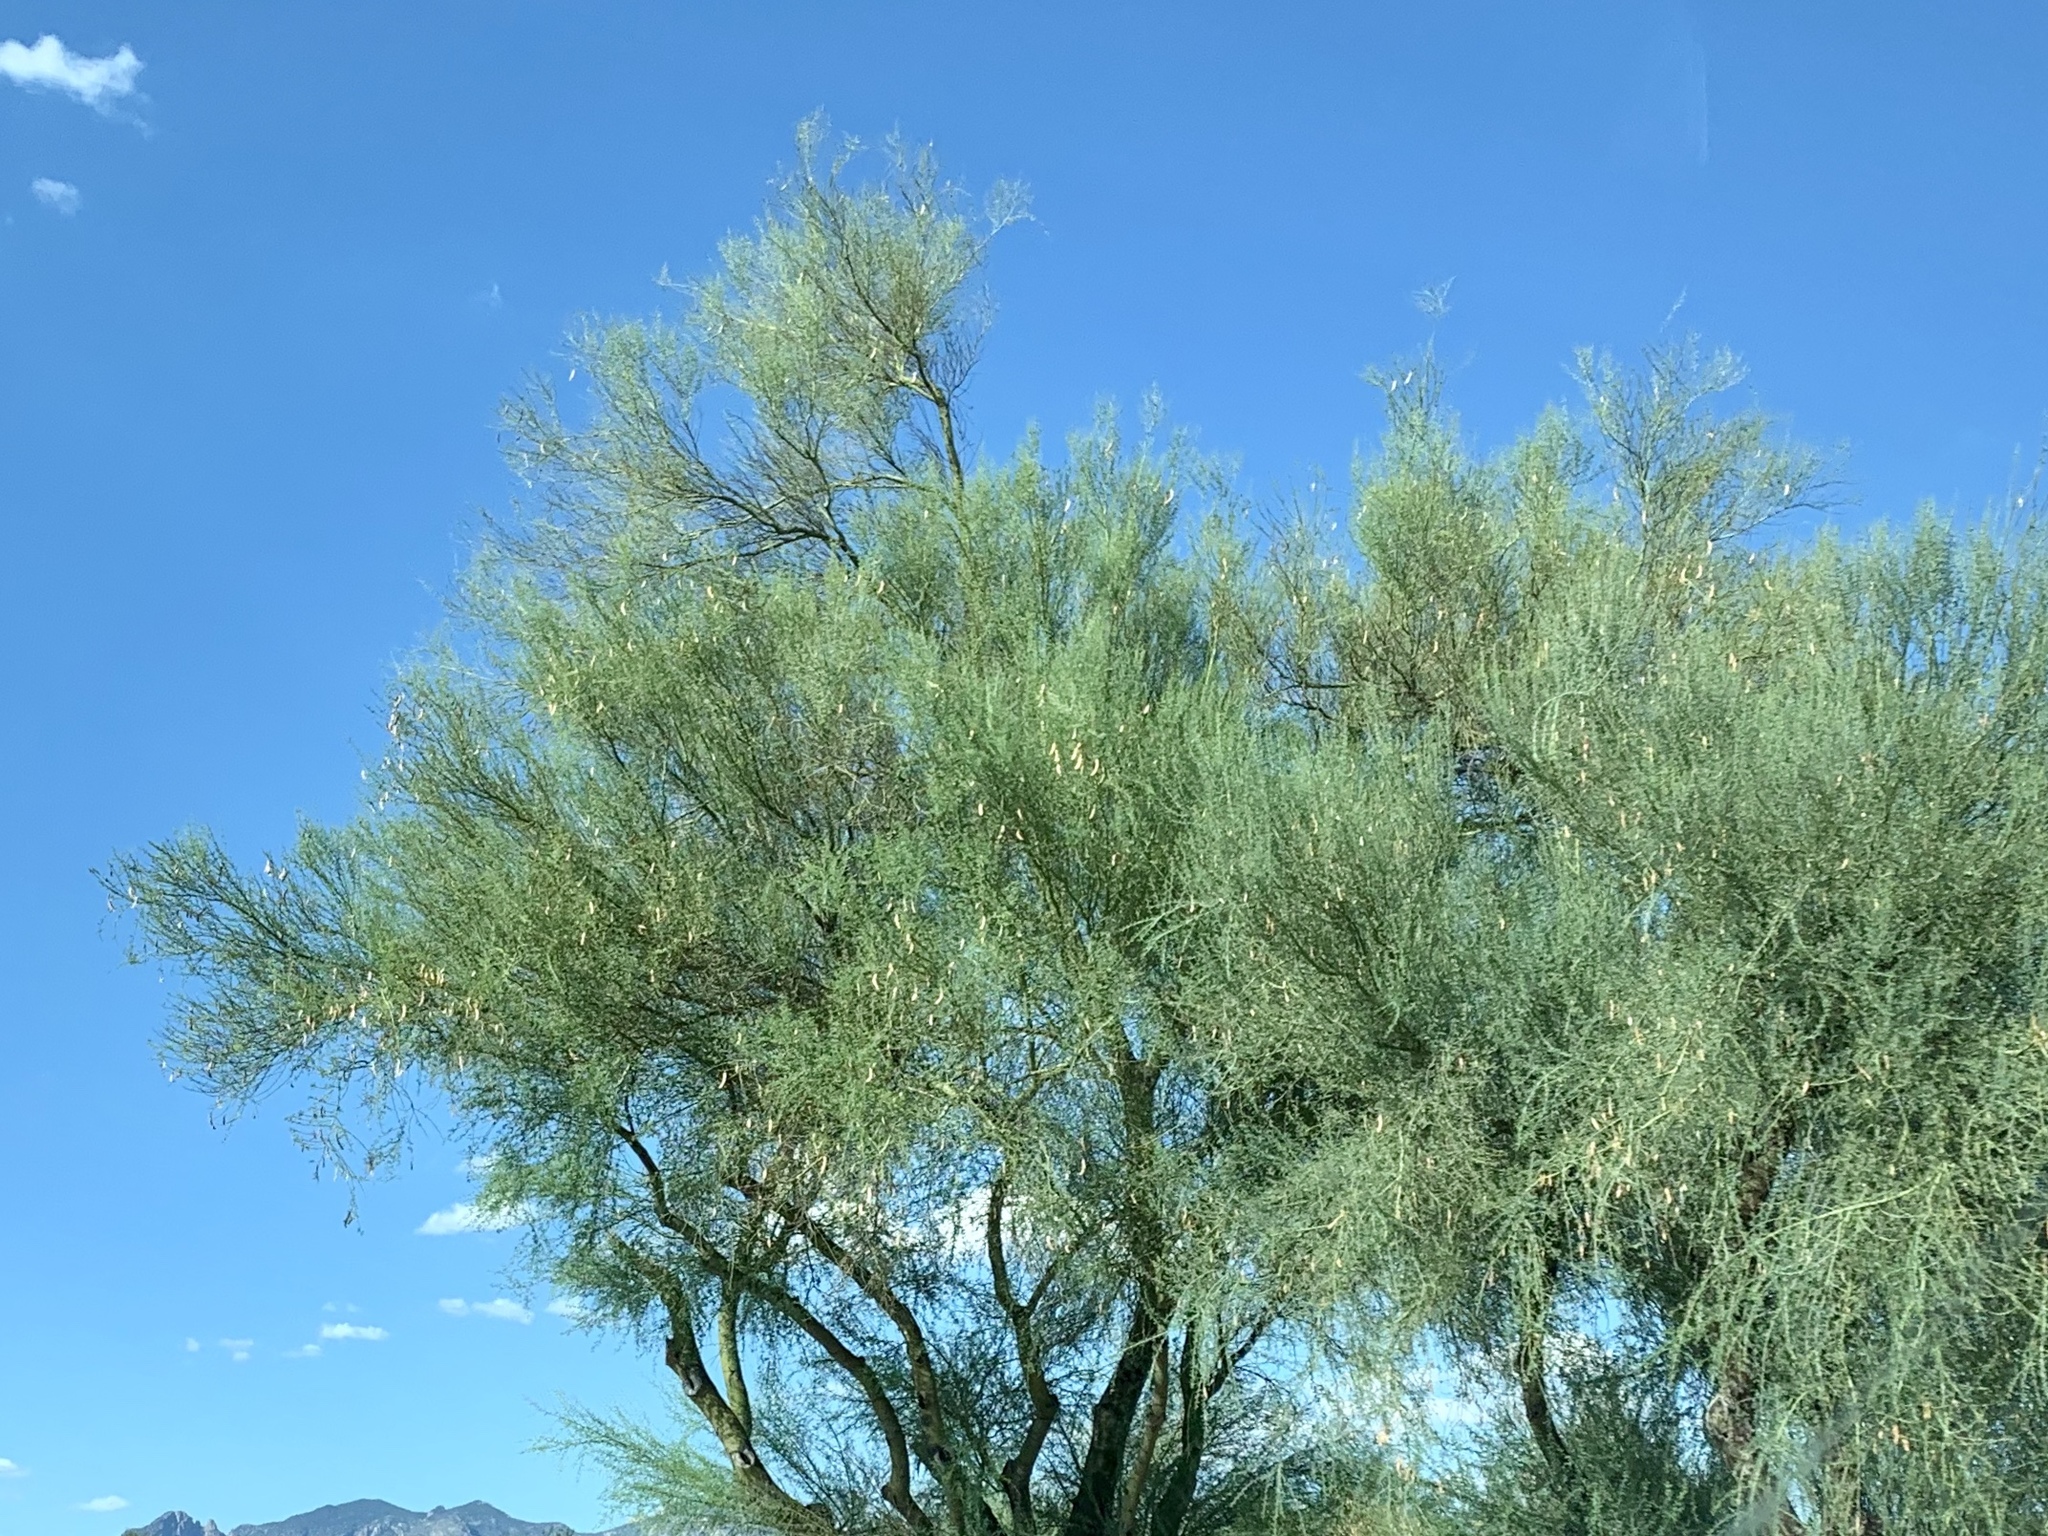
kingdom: Plantae
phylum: Tracheophyta
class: Magnoliopsida
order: Fabales
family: Fabaceae
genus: Parkinsonia
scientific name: Parkinsonia microphylla
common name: Yellow paloverde
